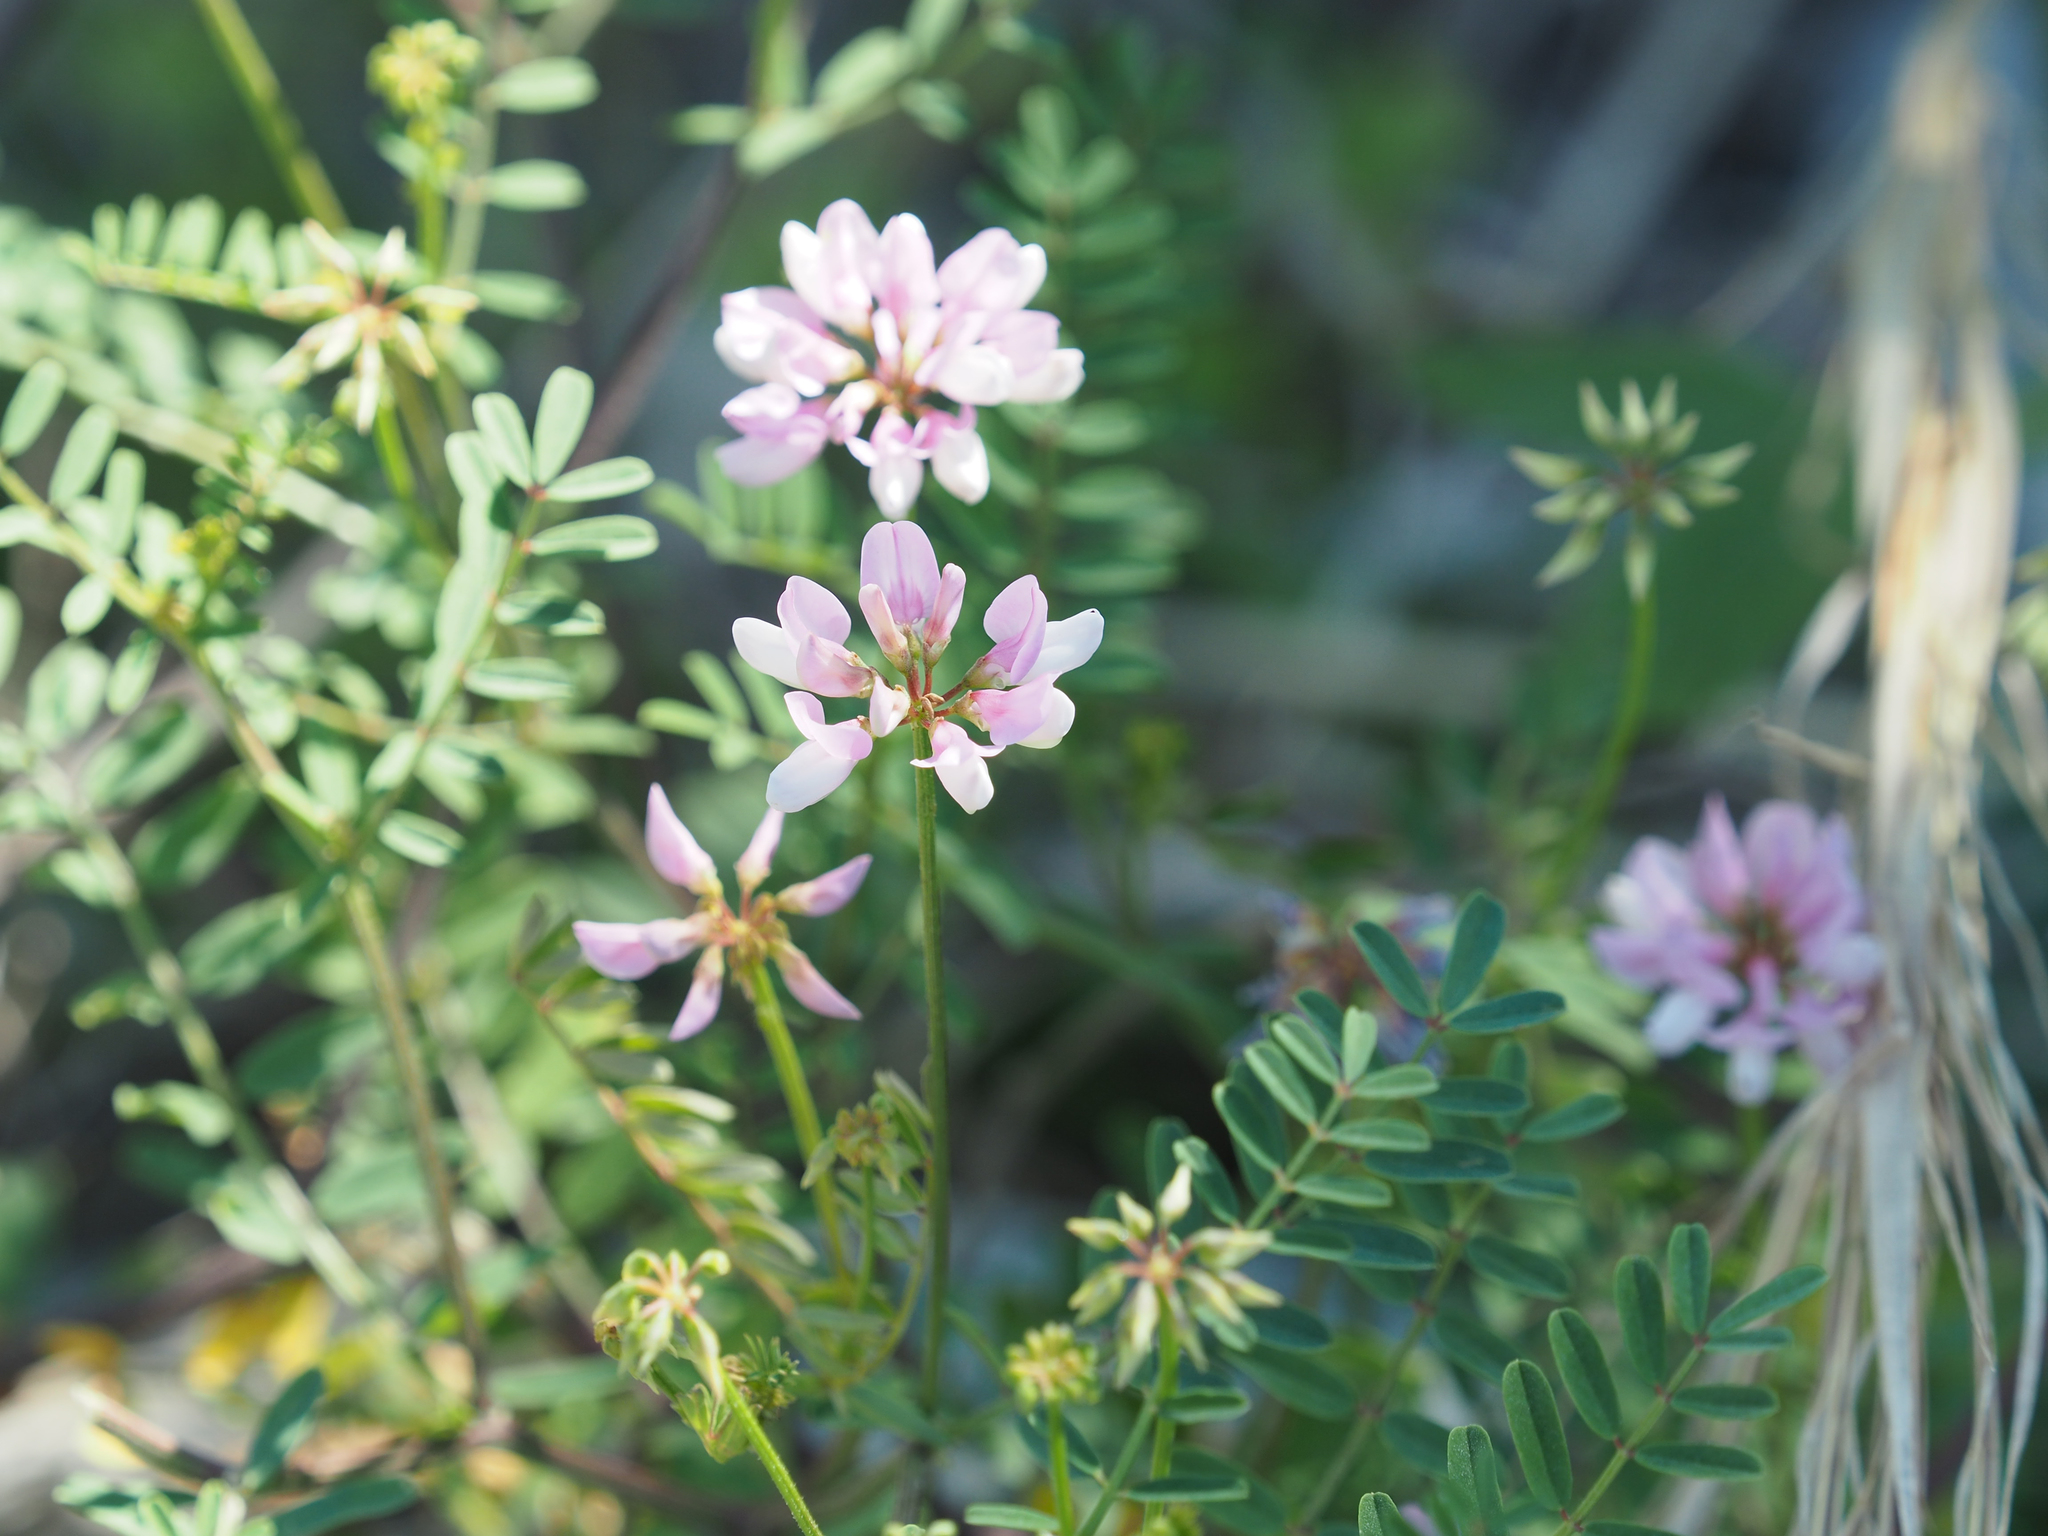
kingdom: Plantae
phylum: Tracheophyta
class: Magnoliopsida
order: Fabales
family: Fabaceae
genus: Coronilla
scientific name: Coronilla varia
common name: Crownvetch
